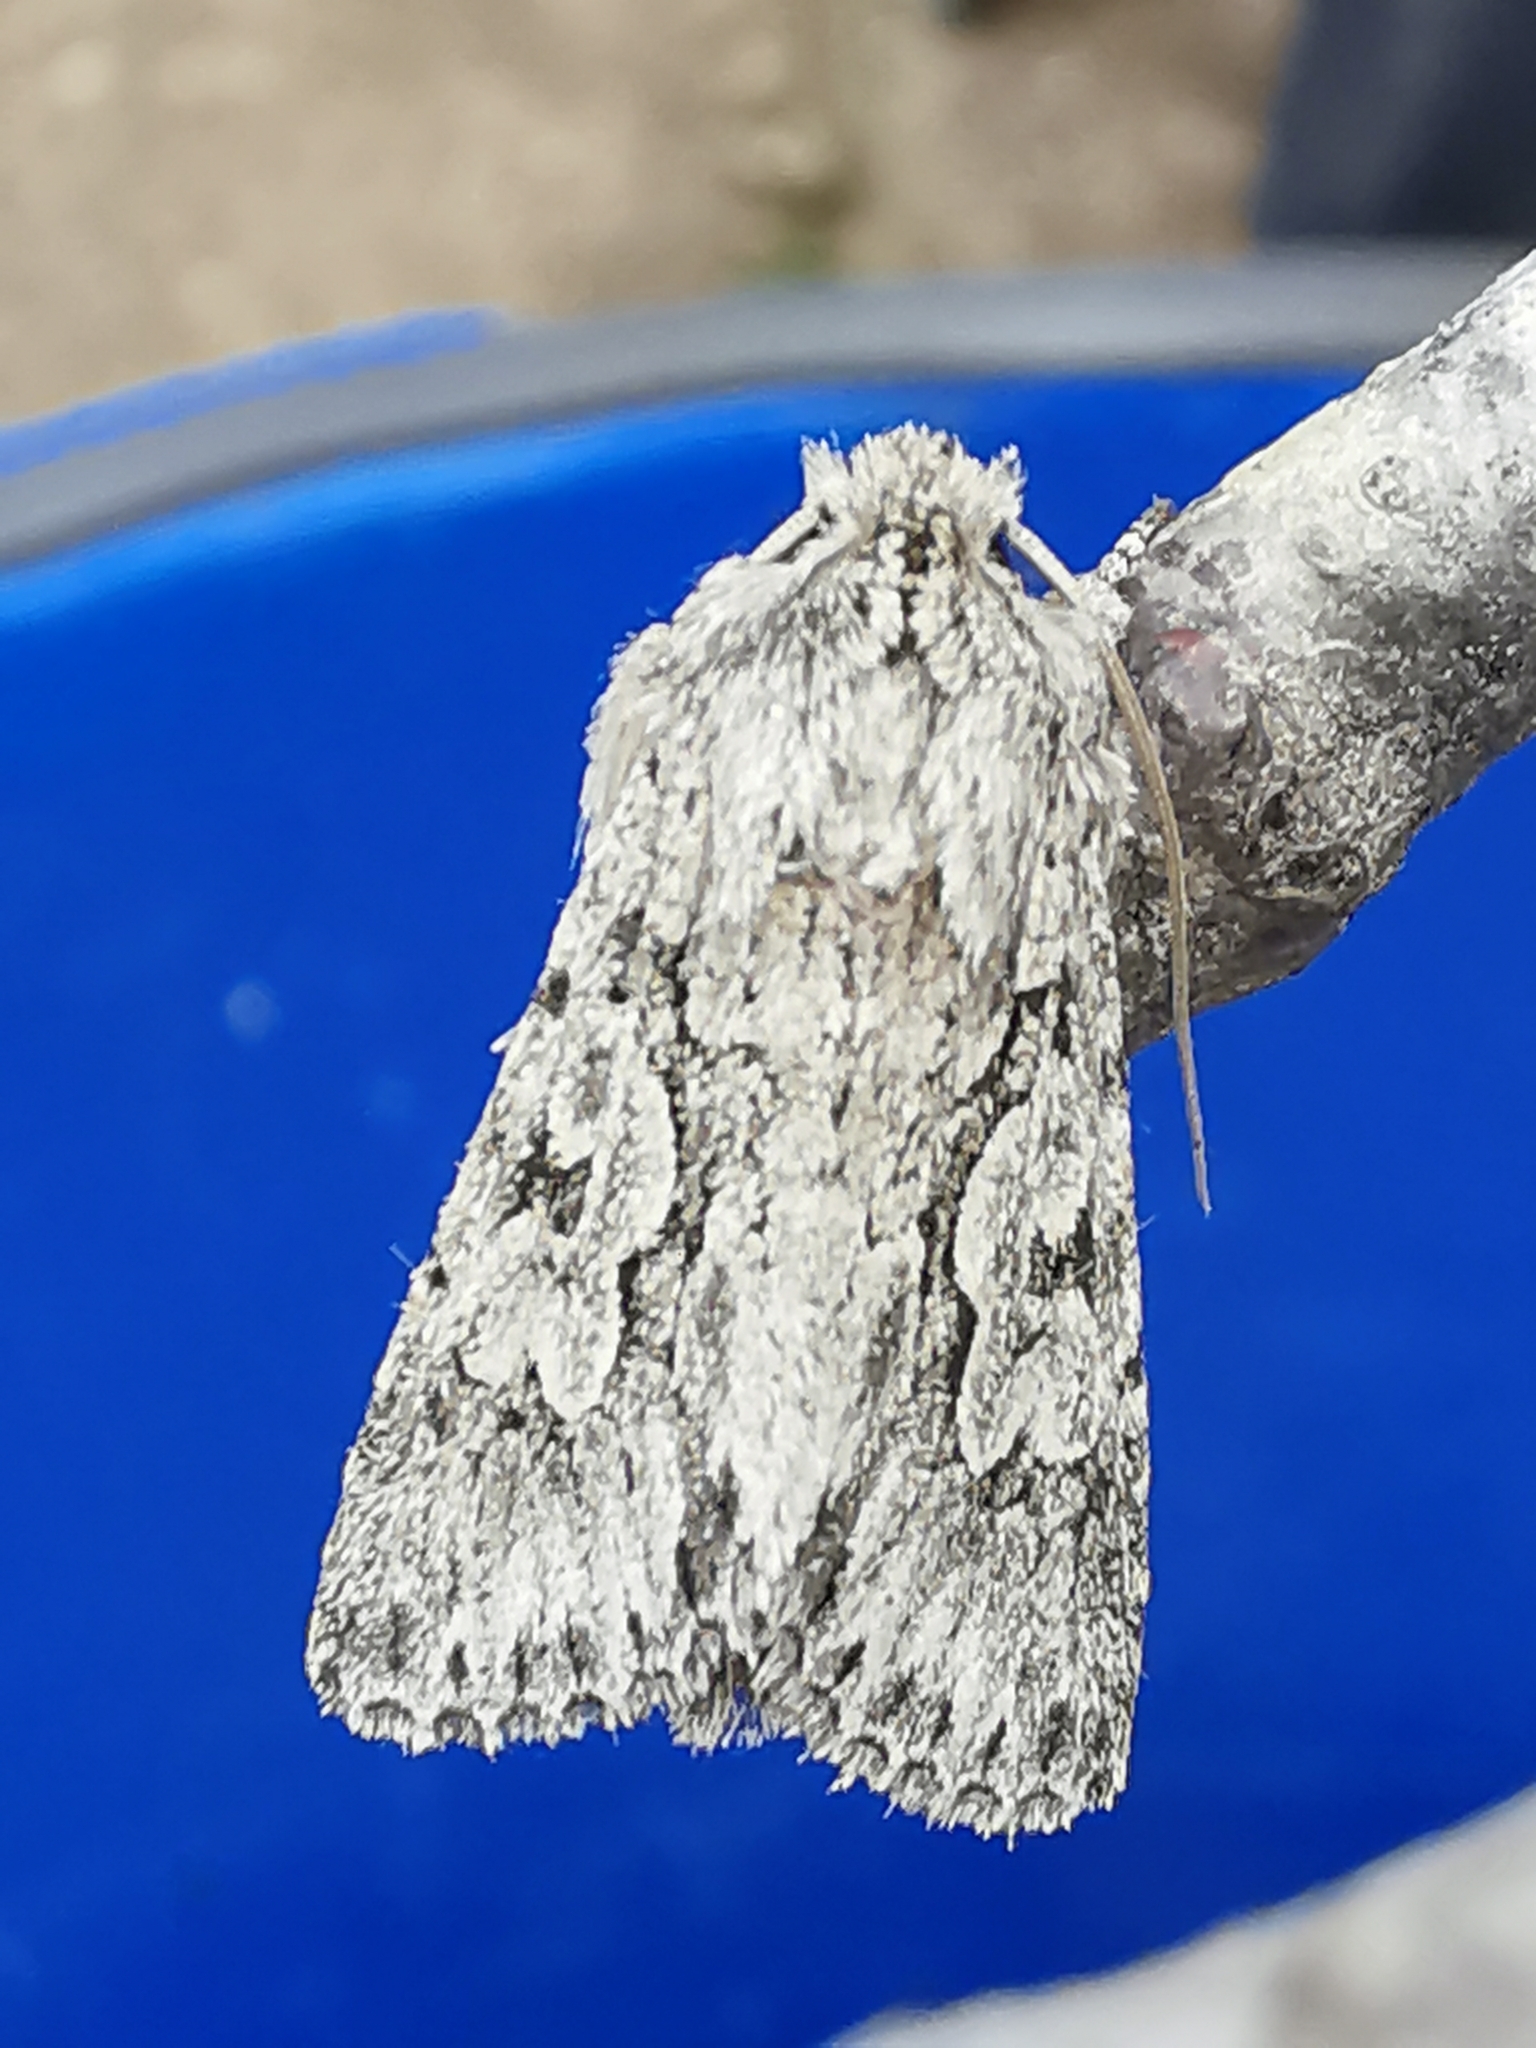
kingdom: Animalia
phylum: Arthropoda
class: Insecta
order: Lepidoptera
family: Noctuidae
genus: Xylocampa
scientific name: Xylocampa areola
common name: Early grey
